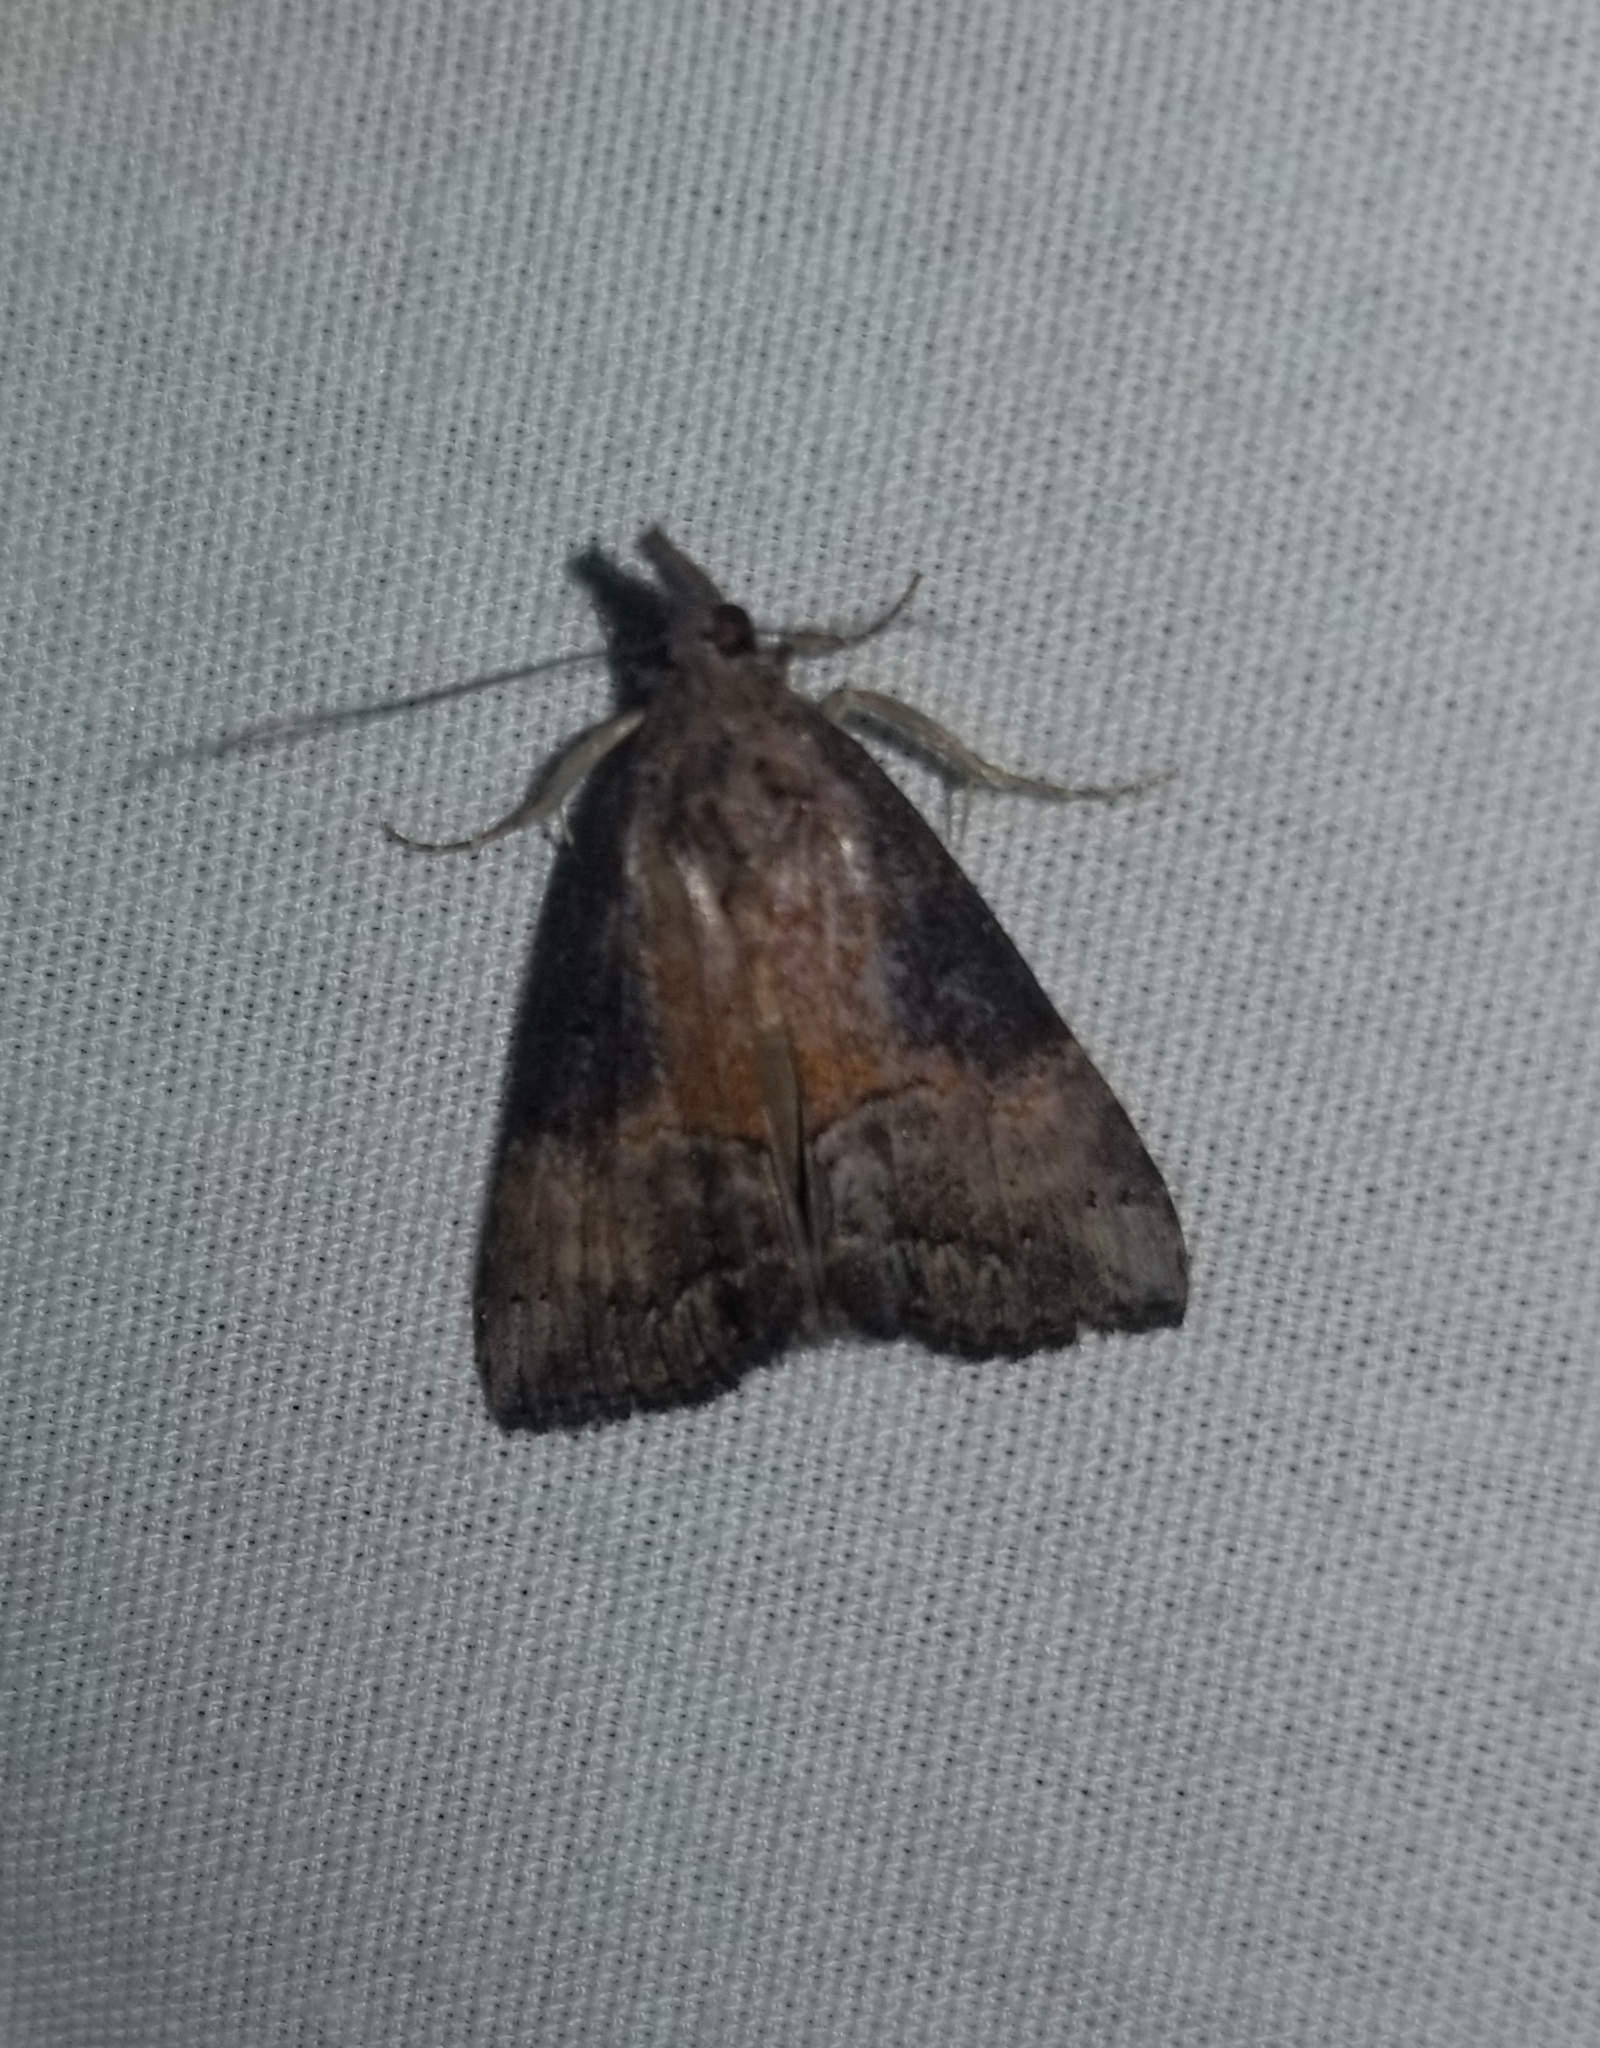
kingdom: Animalia
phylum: Arthropoda
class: Insecta
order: Lepidoptera
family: Erebidae
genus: Hypena
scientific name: Hypena scabra
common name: Green cloverworm
